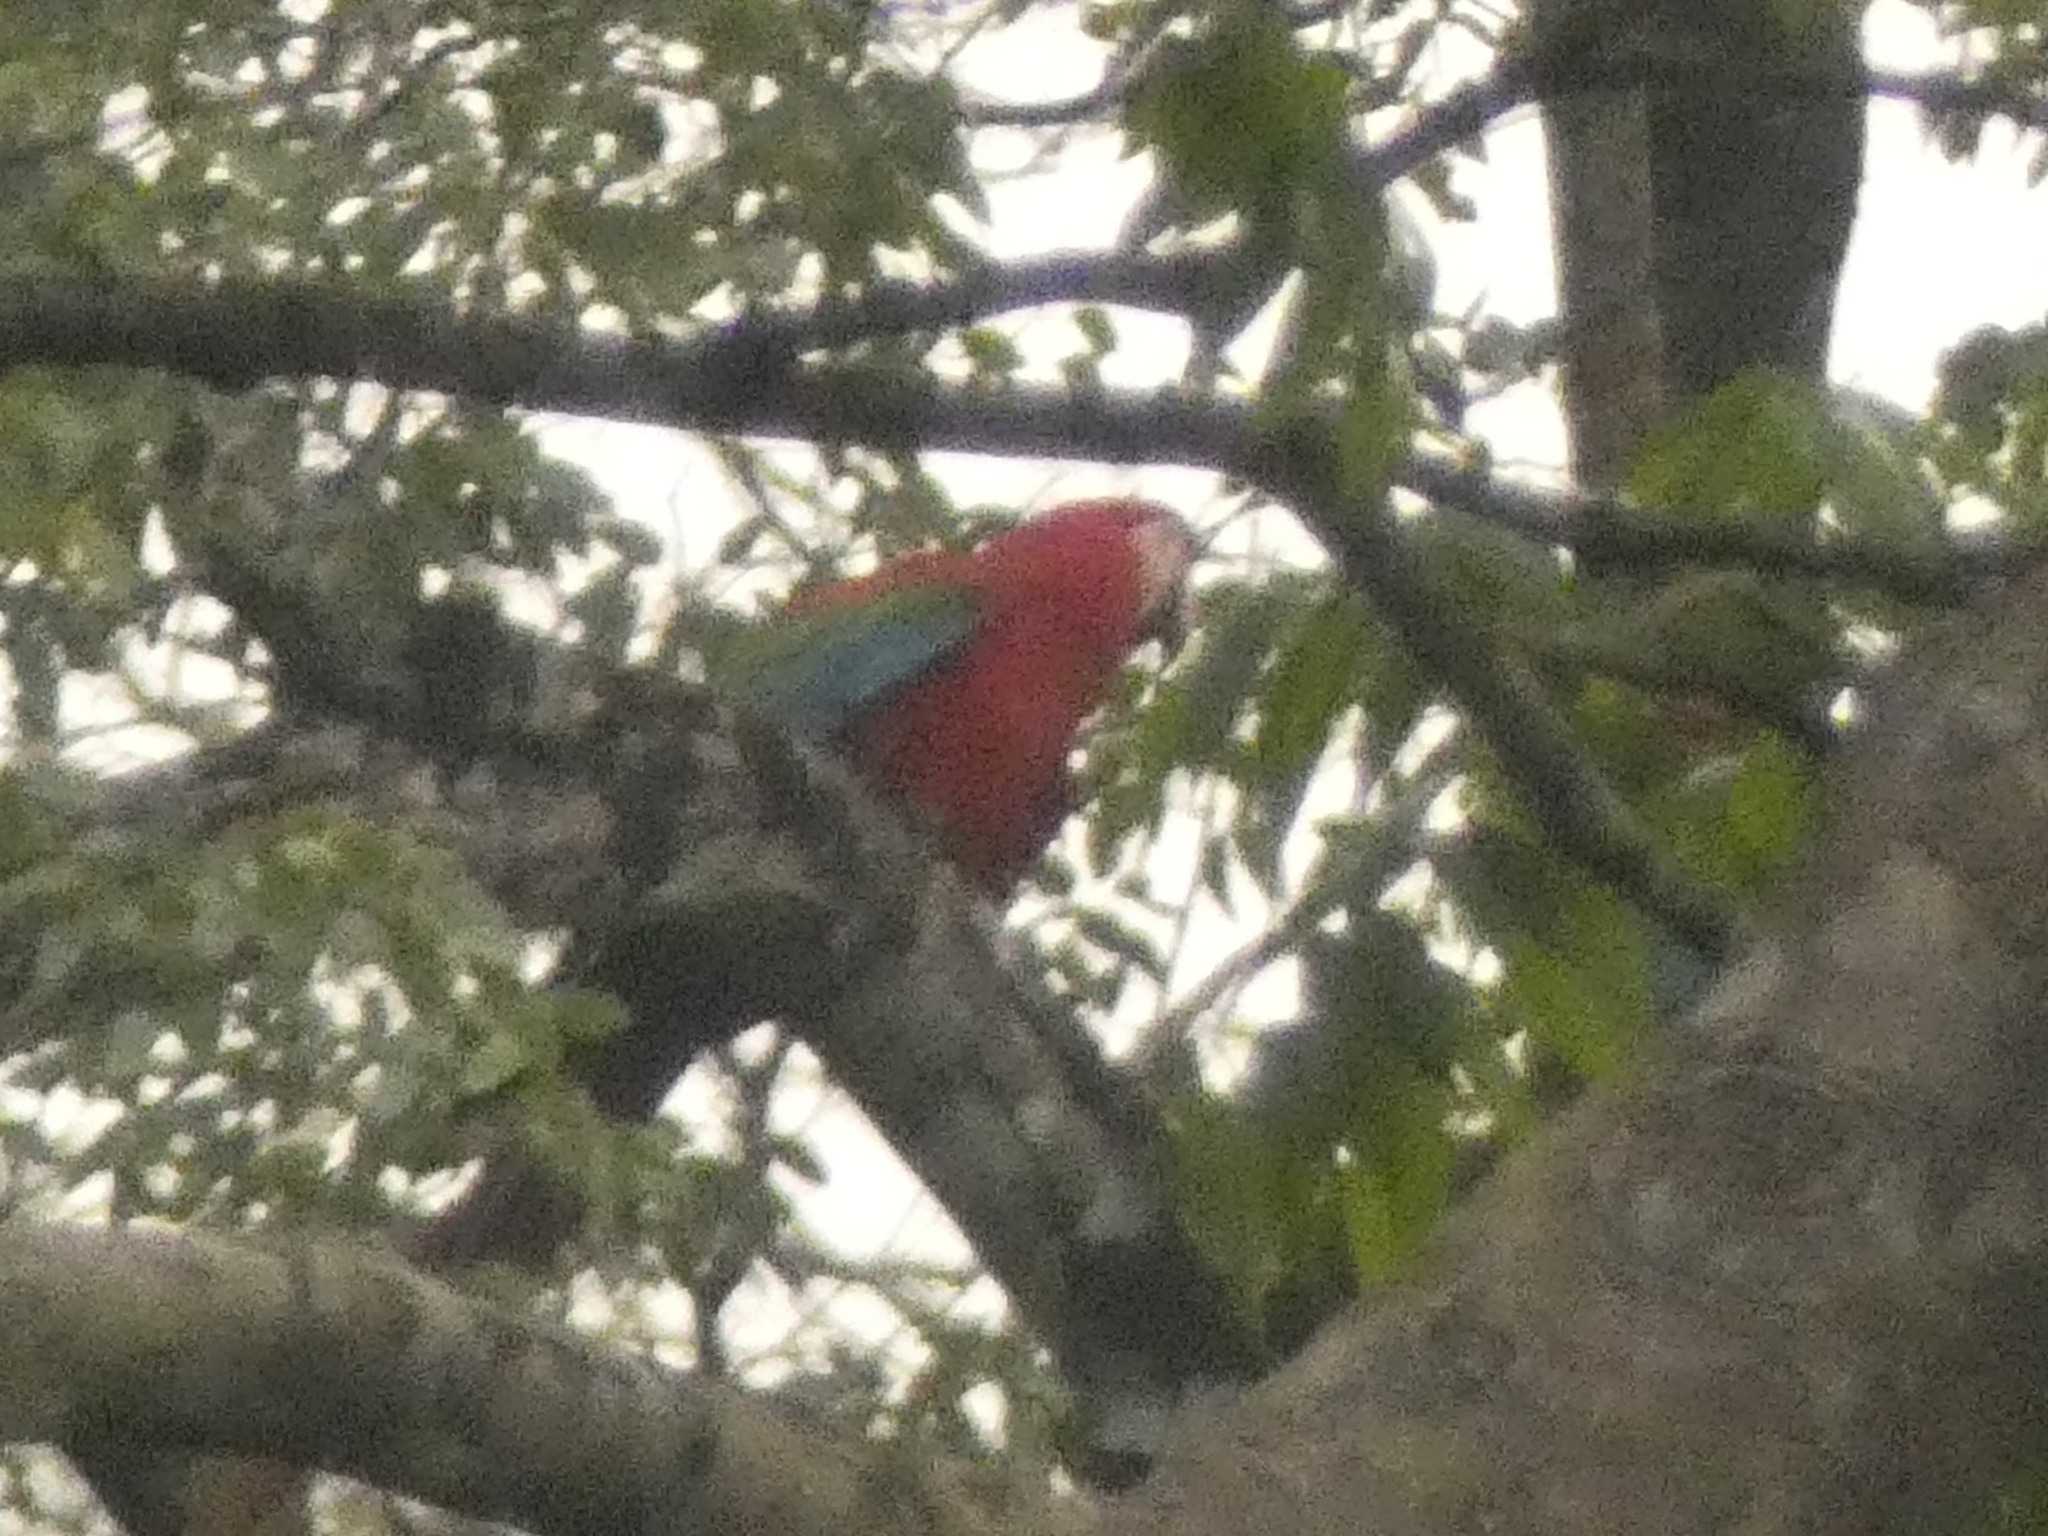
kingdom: Animalia
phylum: Chordata
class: Aves
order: Psittaciformes
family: Psittacidae
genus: Ara
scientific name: Ara chloropterus
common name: Red-and-green macaw
